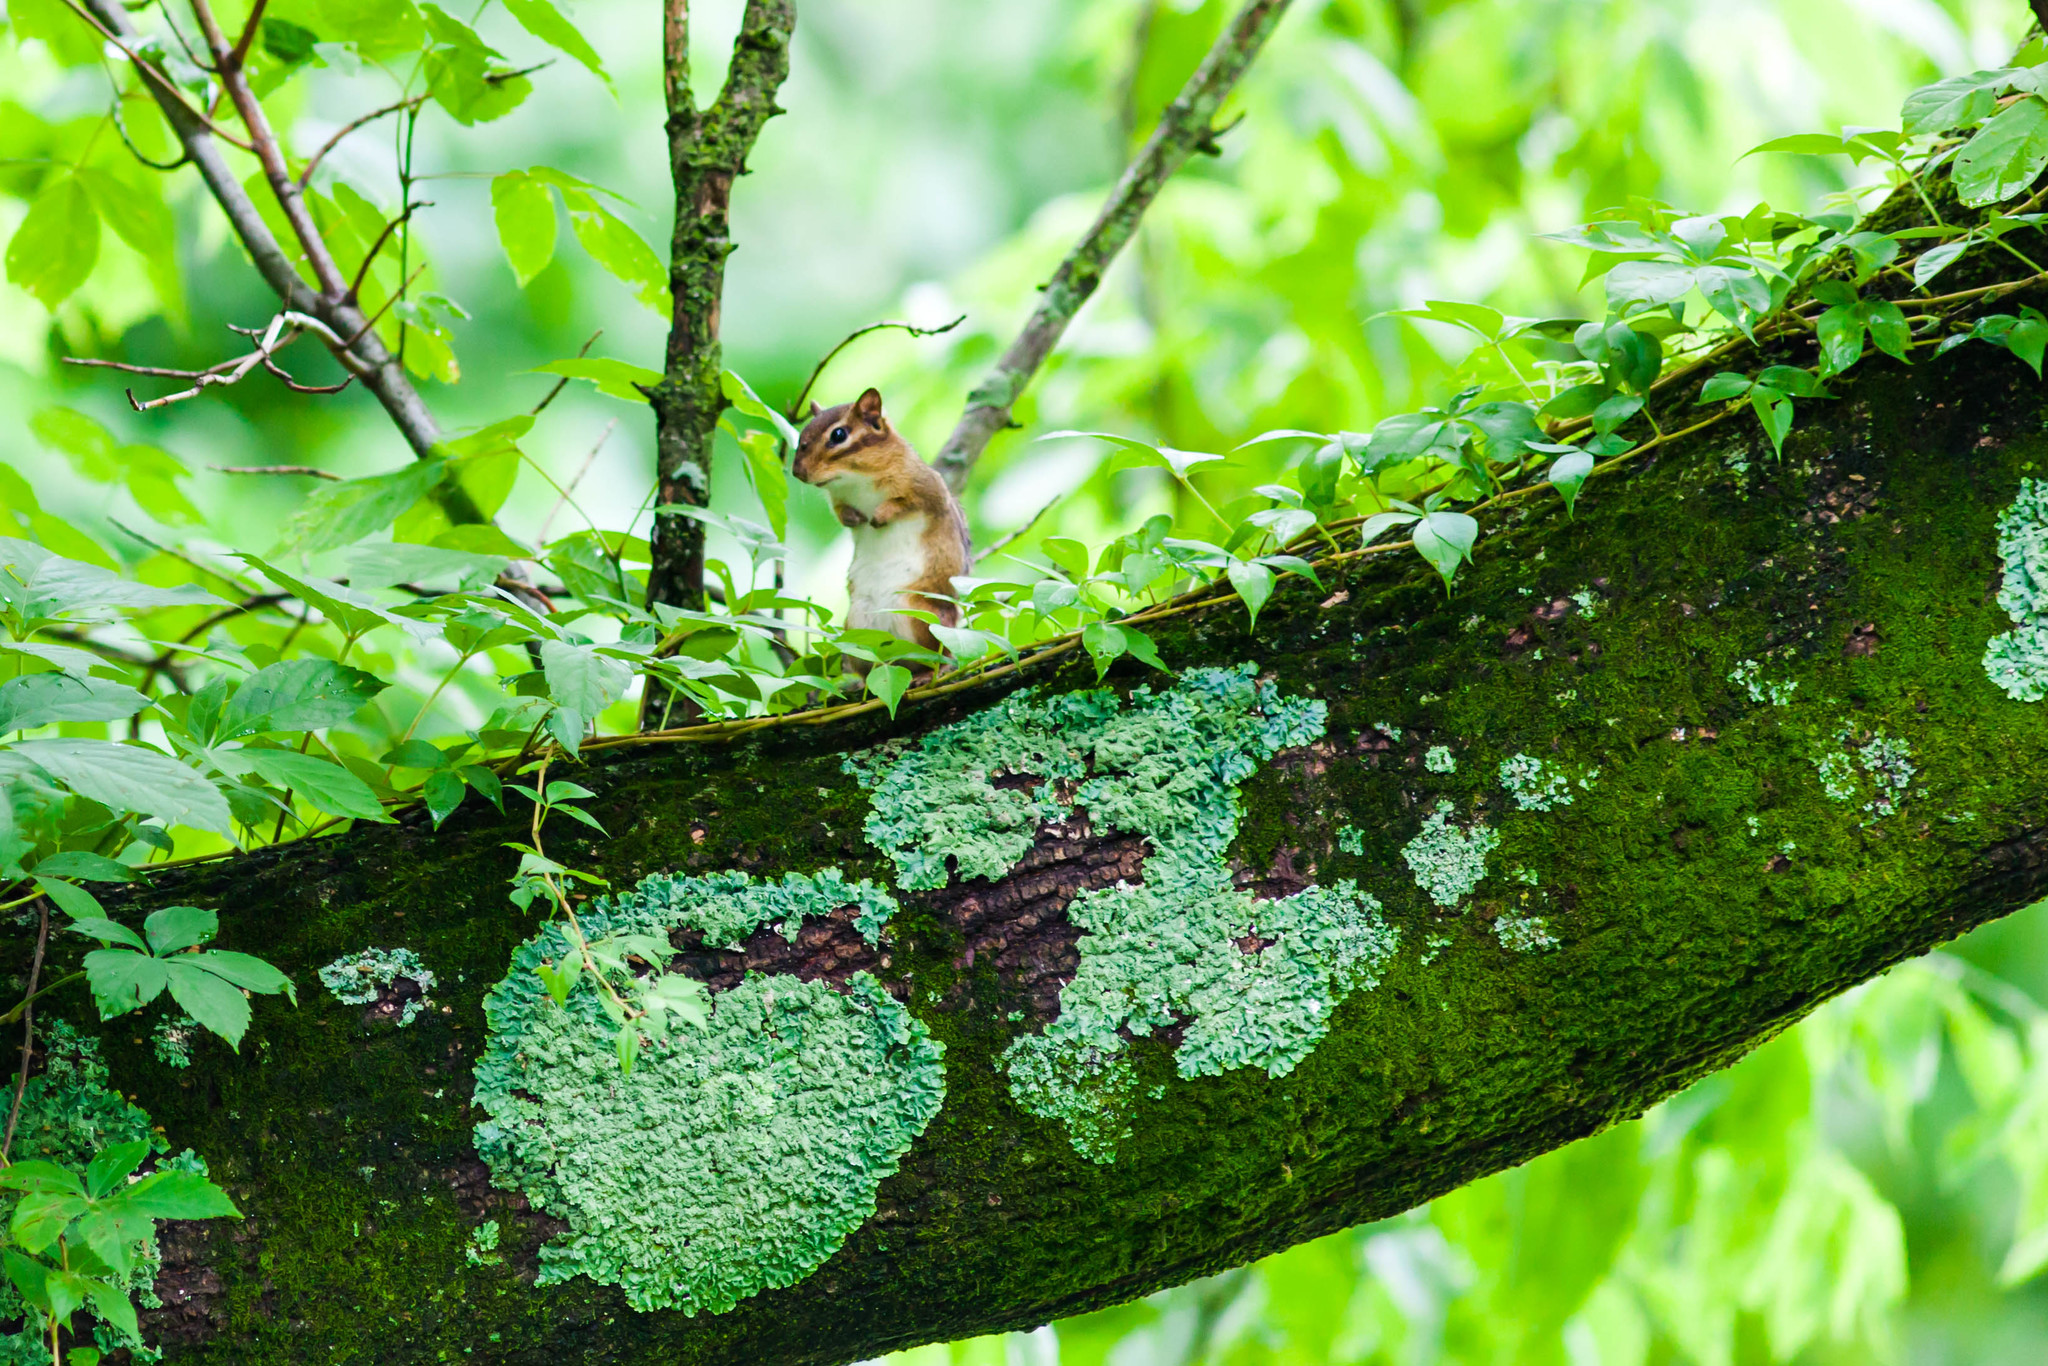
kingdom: Animalia
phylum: Chordata
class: Mammalia
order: Rodentia
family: Sciuridae
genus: Tamias
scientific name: Tamias striatus
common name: Eastern chipmunk
